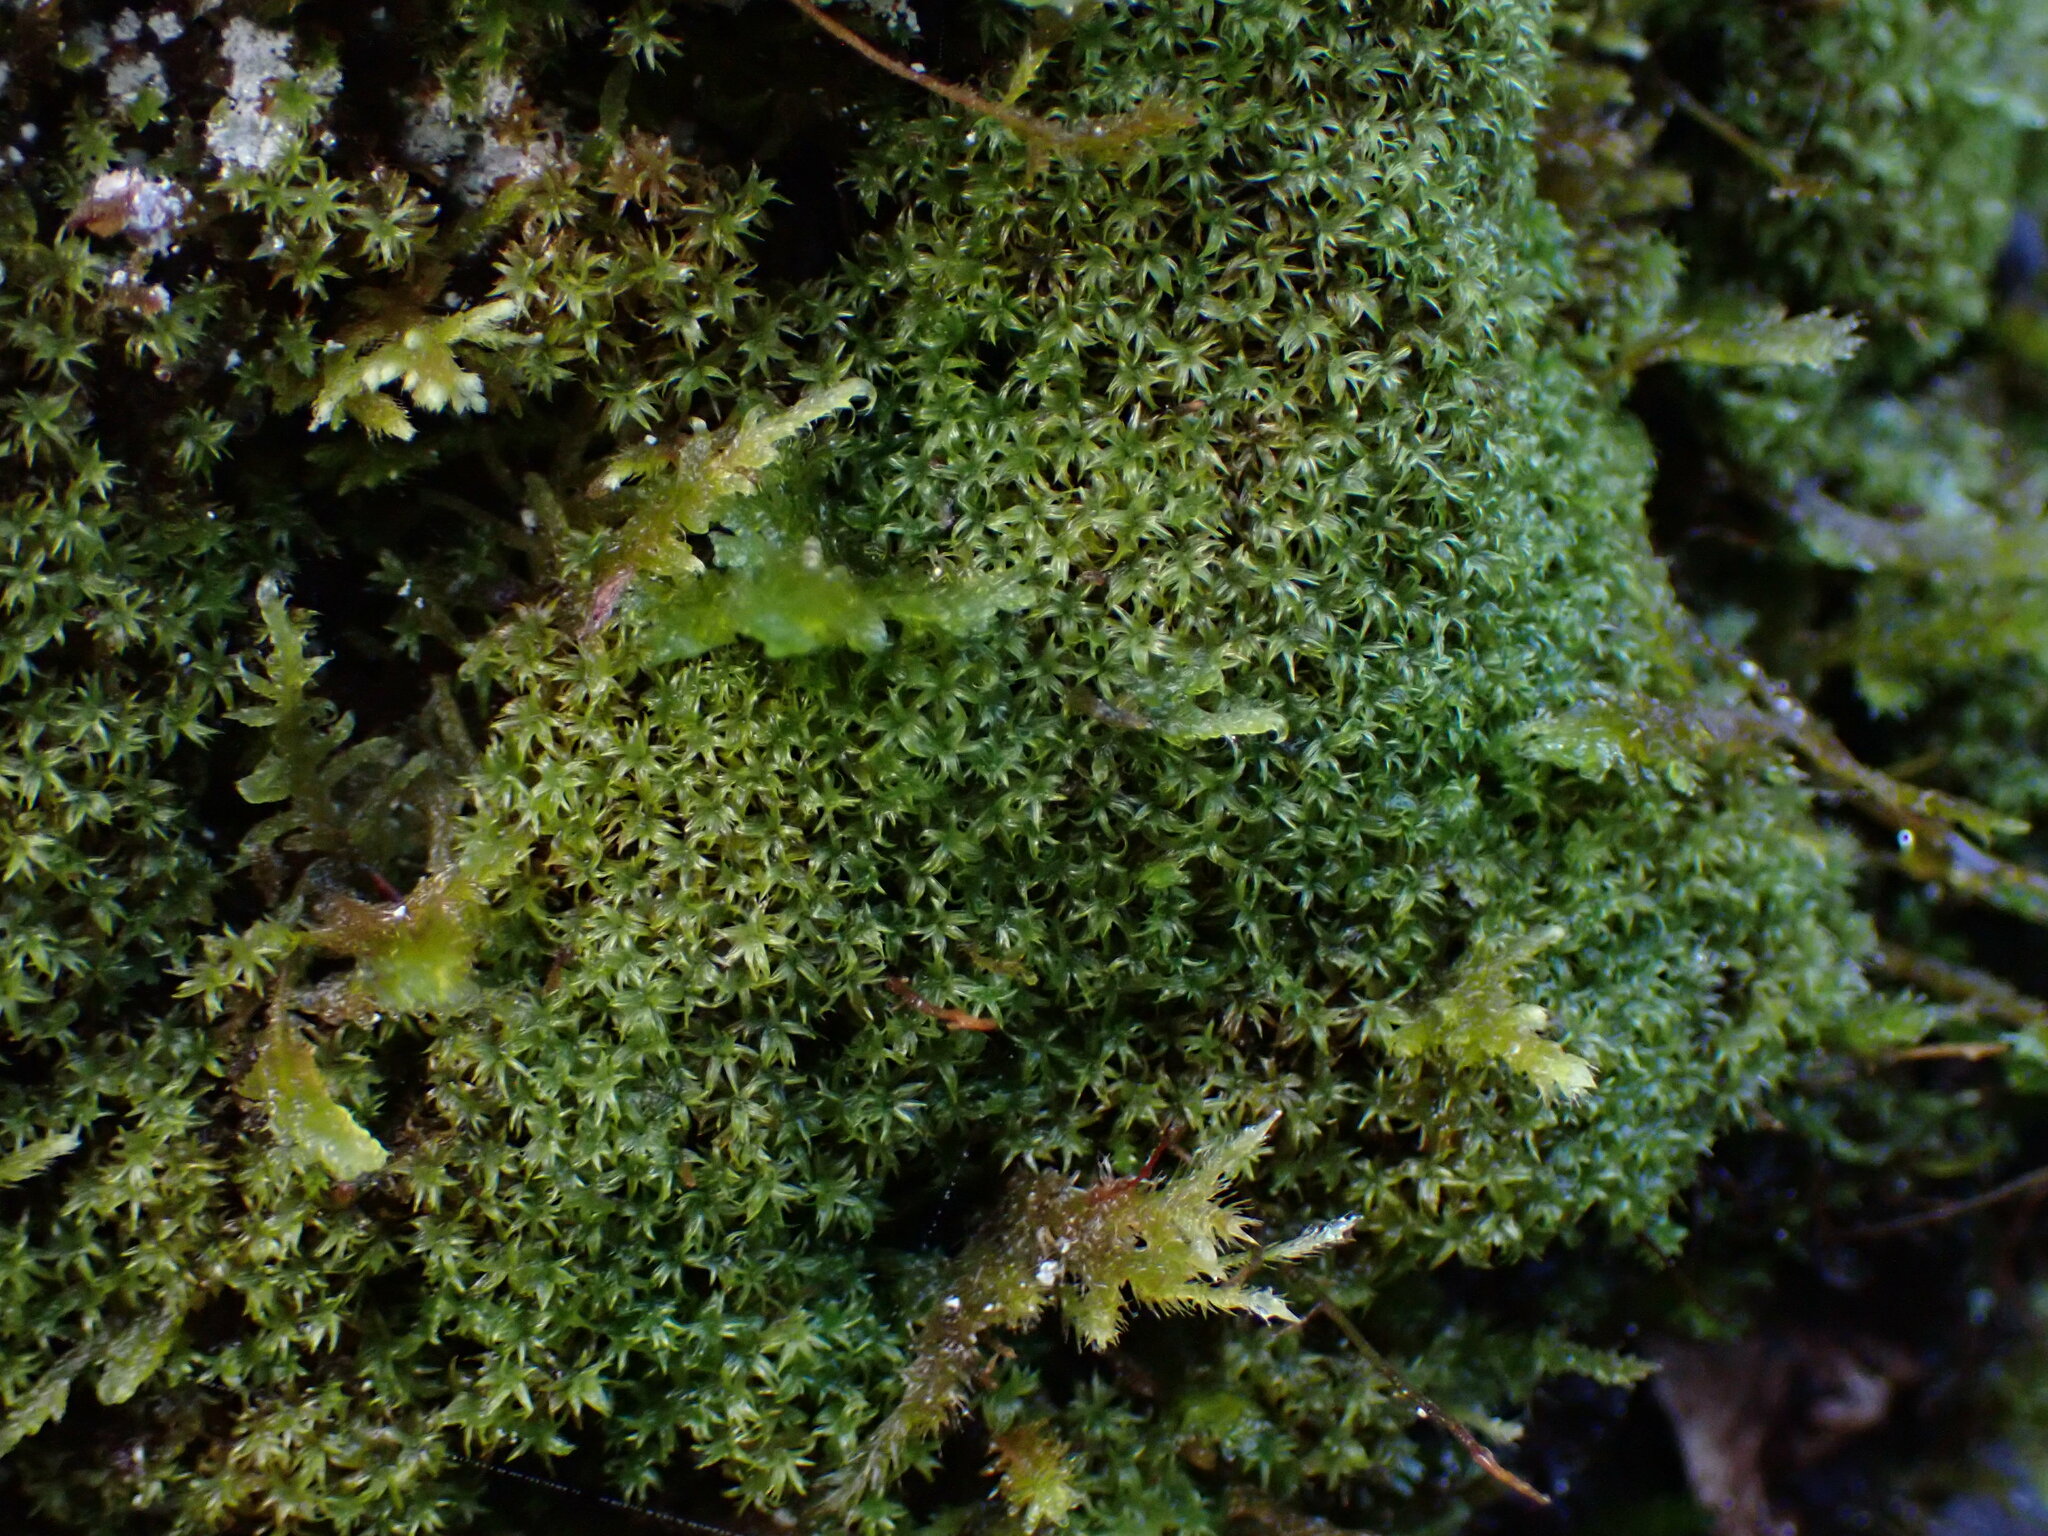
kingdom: Plantae
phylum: Bryophyta
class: Bryopsida
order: Orthotrichales
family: Orthotrichaceae
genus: Zygodon
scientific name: Zygodon rupestris
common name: Park yoke moss
